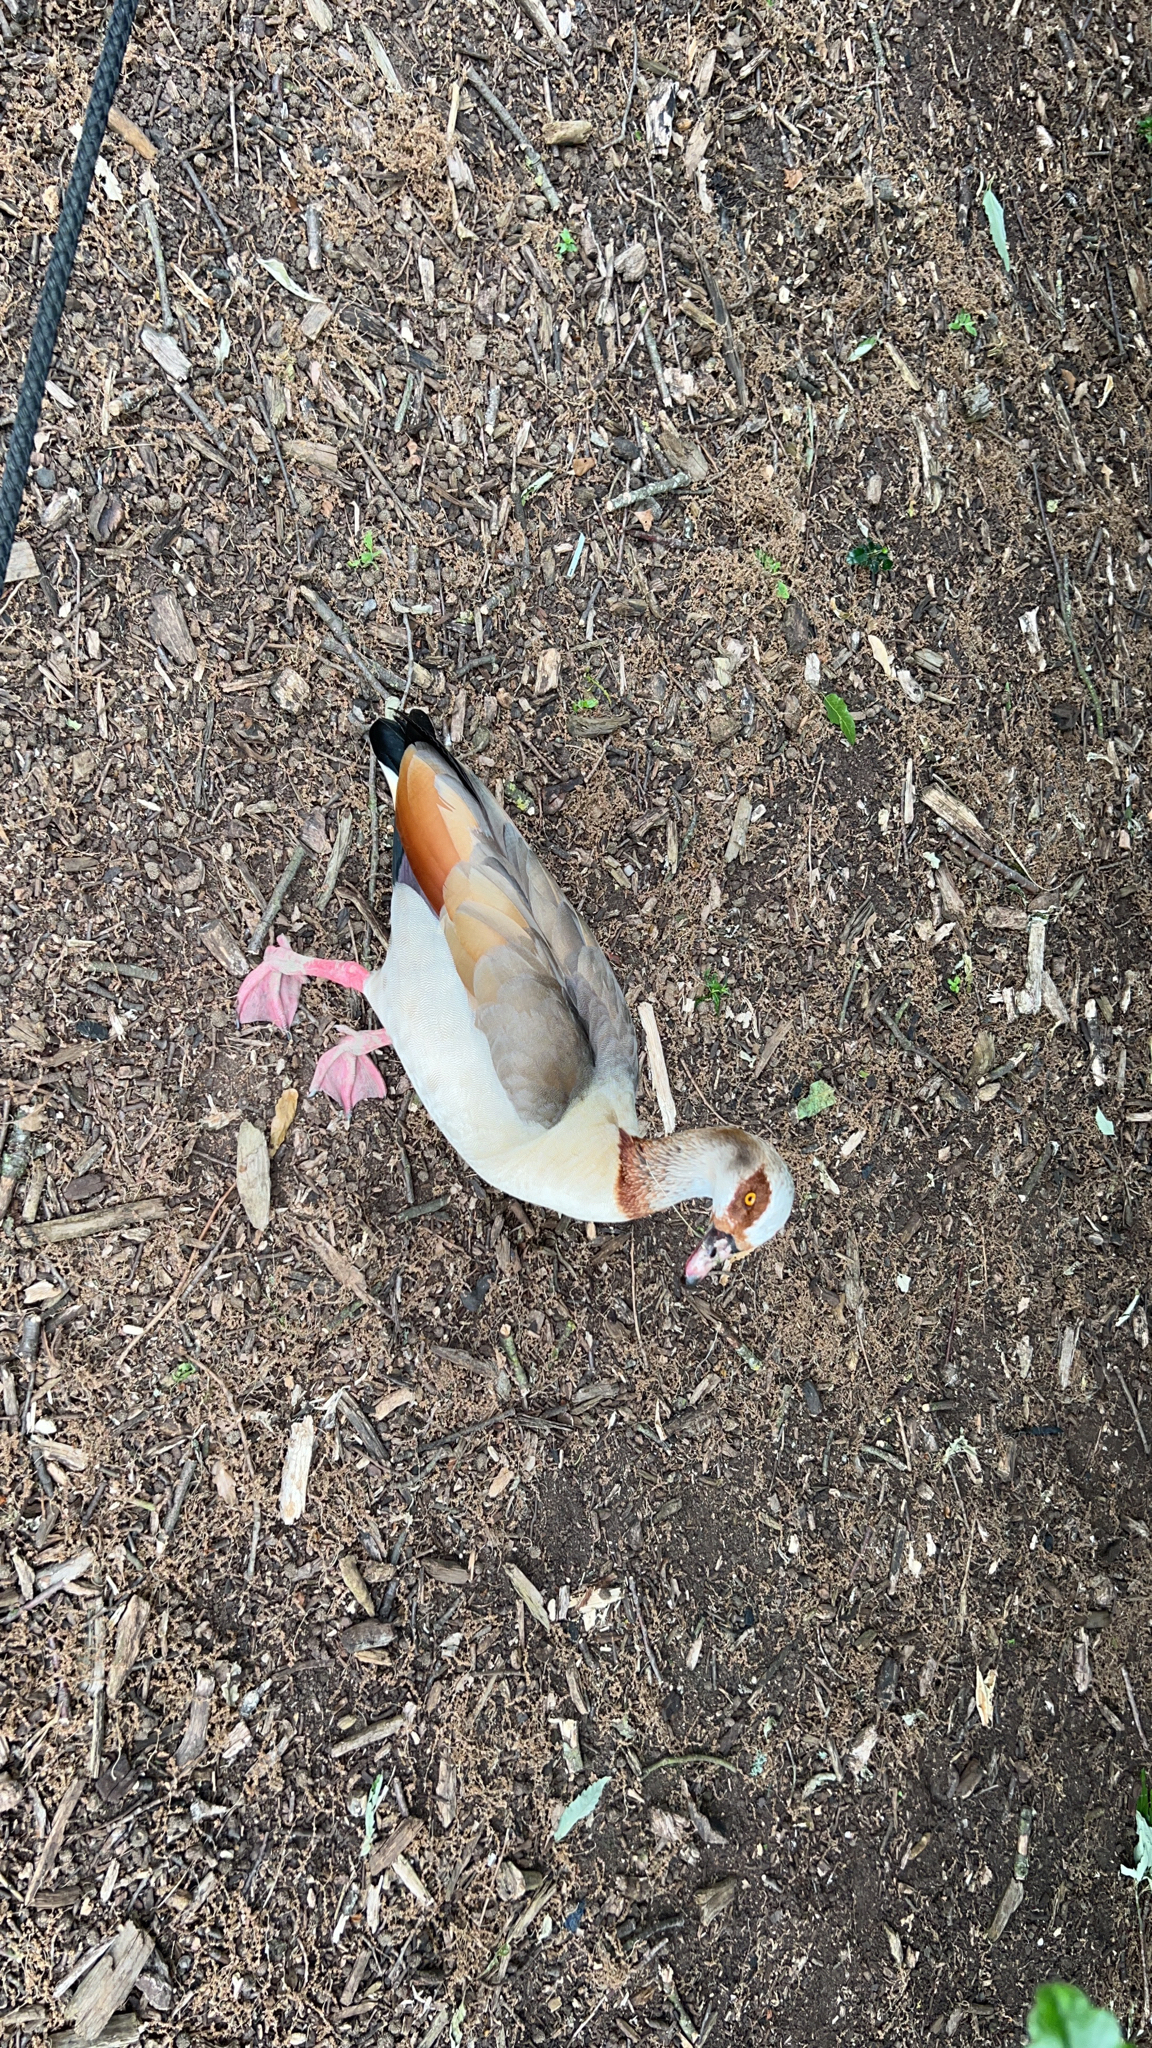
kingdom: Animalia
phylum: Chordata
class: Aves
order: Anseriformes
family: Anatidae
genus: Alopochen
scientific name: Alopochen aegyptiaca
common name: Egyptian goose
